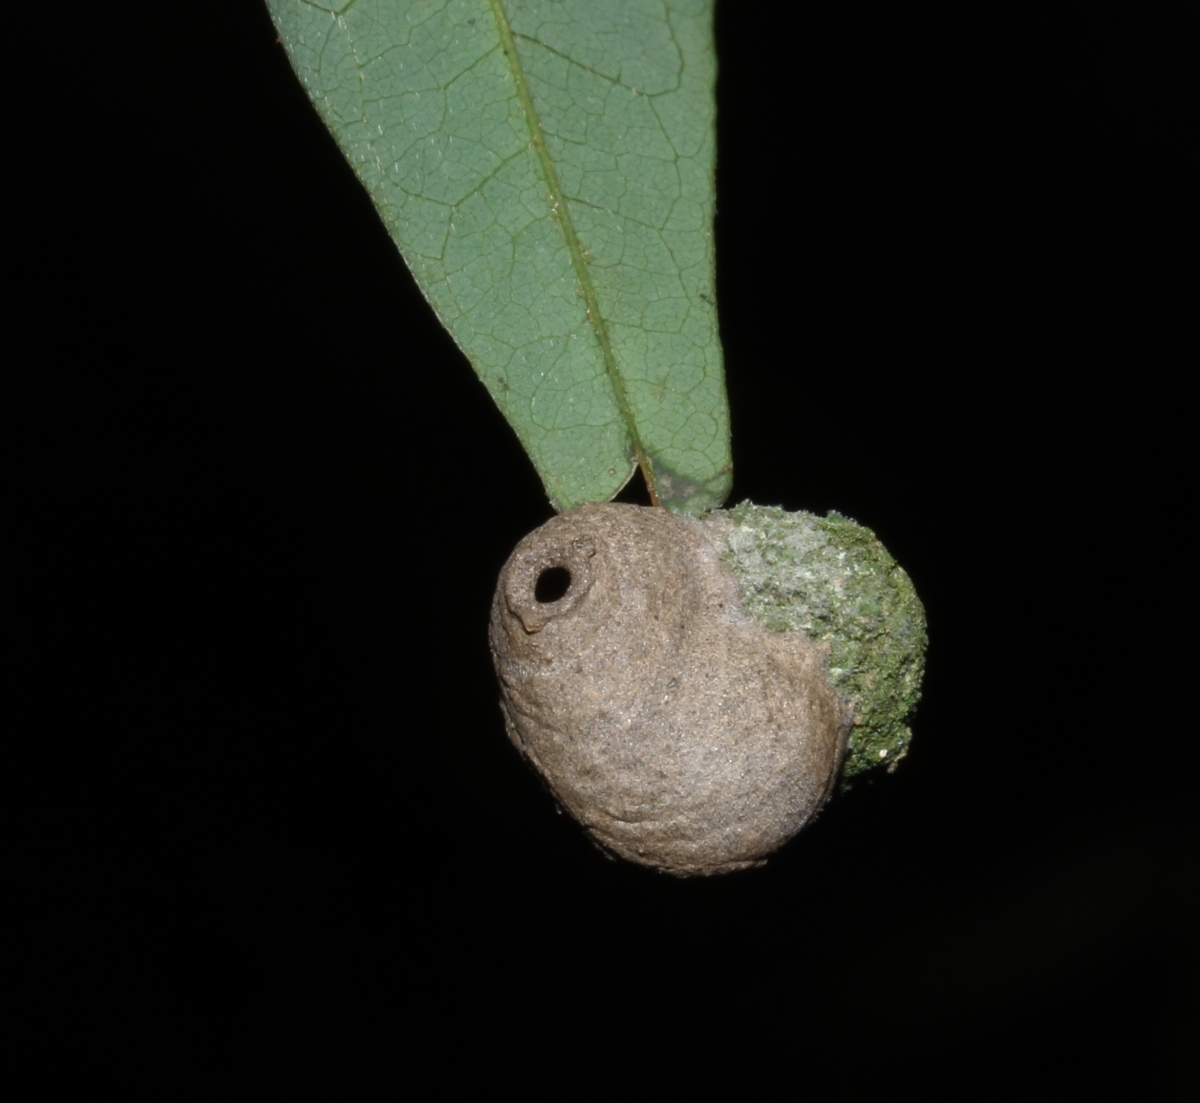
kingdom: Animalia
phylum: Arthropoda
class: Insecta
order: Hymenoptera
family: Eumenidae
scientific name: Eumenidae
